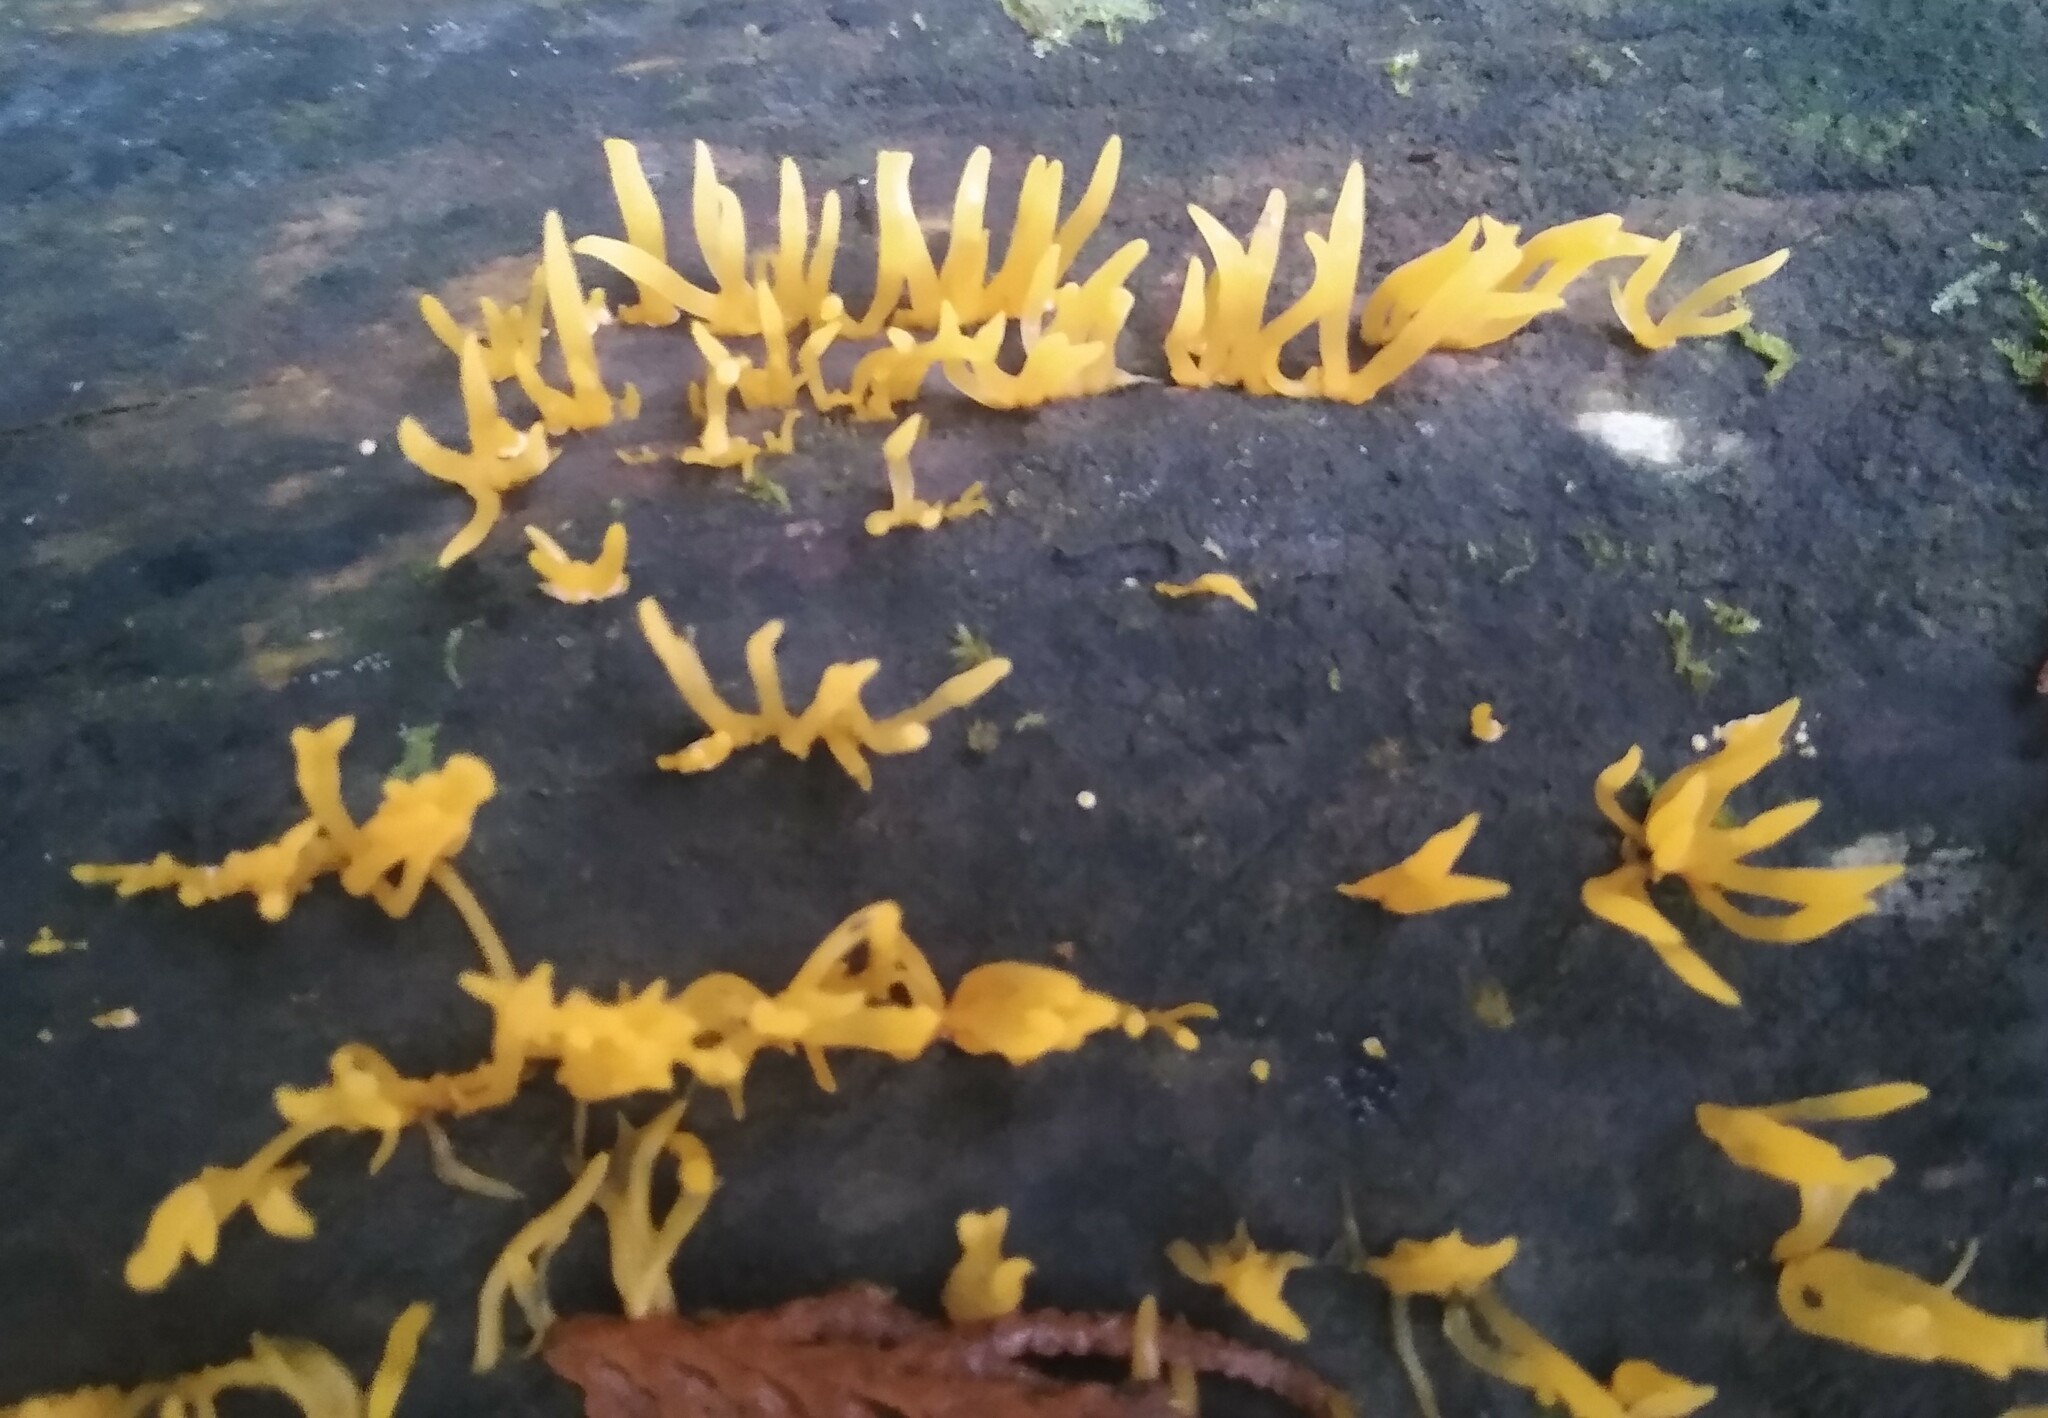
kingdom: Fungi
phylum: Basidiomycota
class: Dacrymycetes
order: Dacrymycetales
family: Dacrymycetaceae
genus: Calocera
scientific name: Calocera viscosa
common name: Yellow stagshorn
